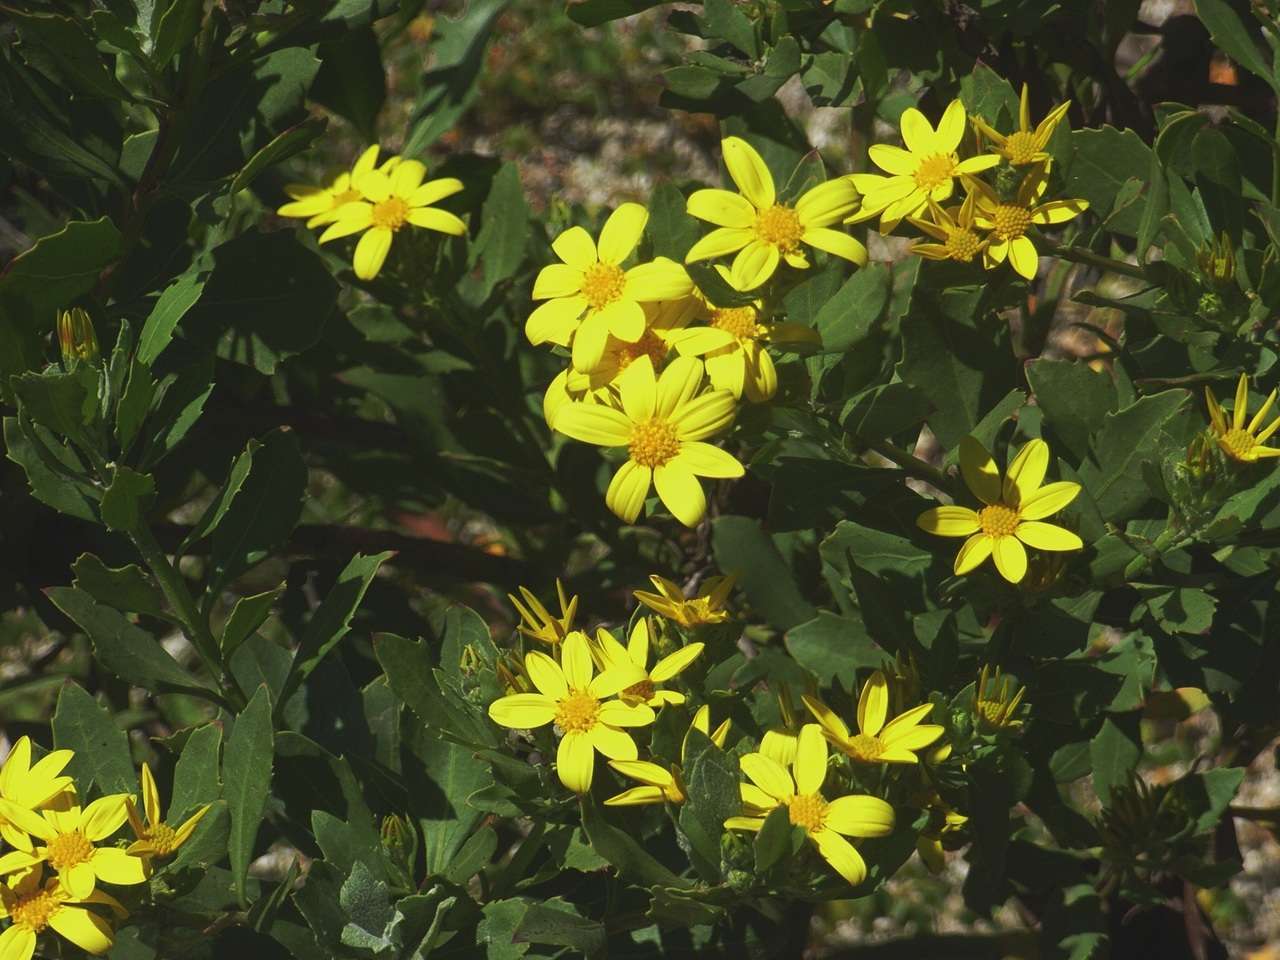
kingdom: Plantae
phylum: Tracheophyta
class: Magnoliopsida
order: Asterales
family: Asteraceae
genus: Osteospermum
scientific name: Osteospermum moniliferum
